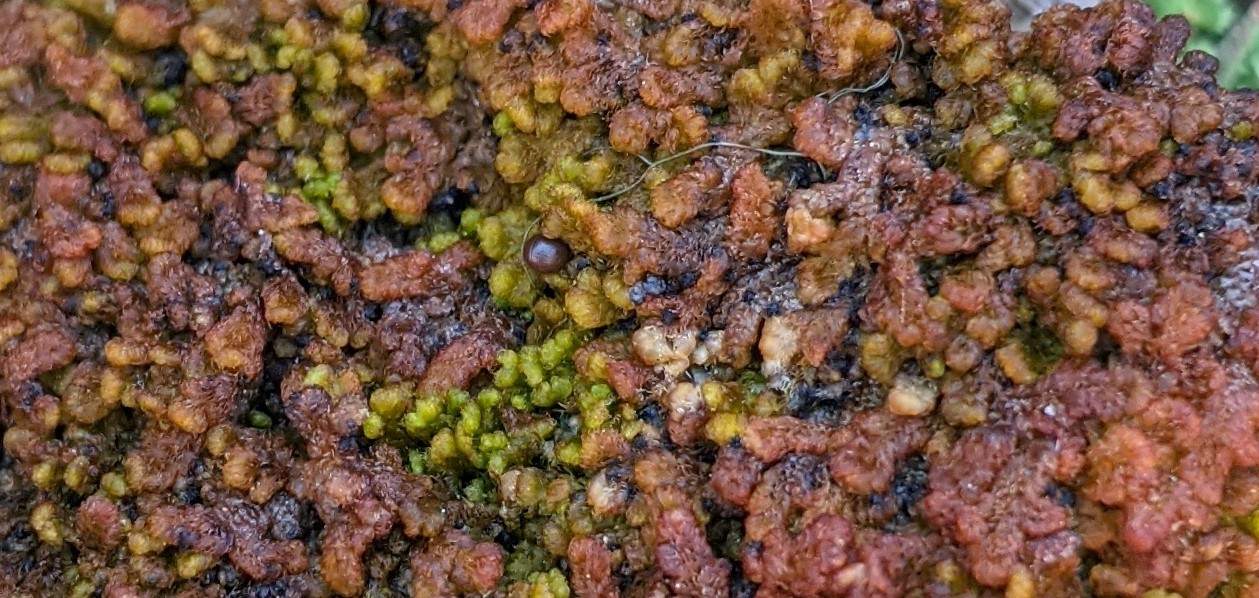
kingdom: Plantae
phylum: Marchantiophyta
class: Jungermanniopsida
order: Ptilidiales
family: Ptilidiaceae
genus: Ptilidium
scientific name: Ptilidium pulcherrimum
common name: Tree fringewort
